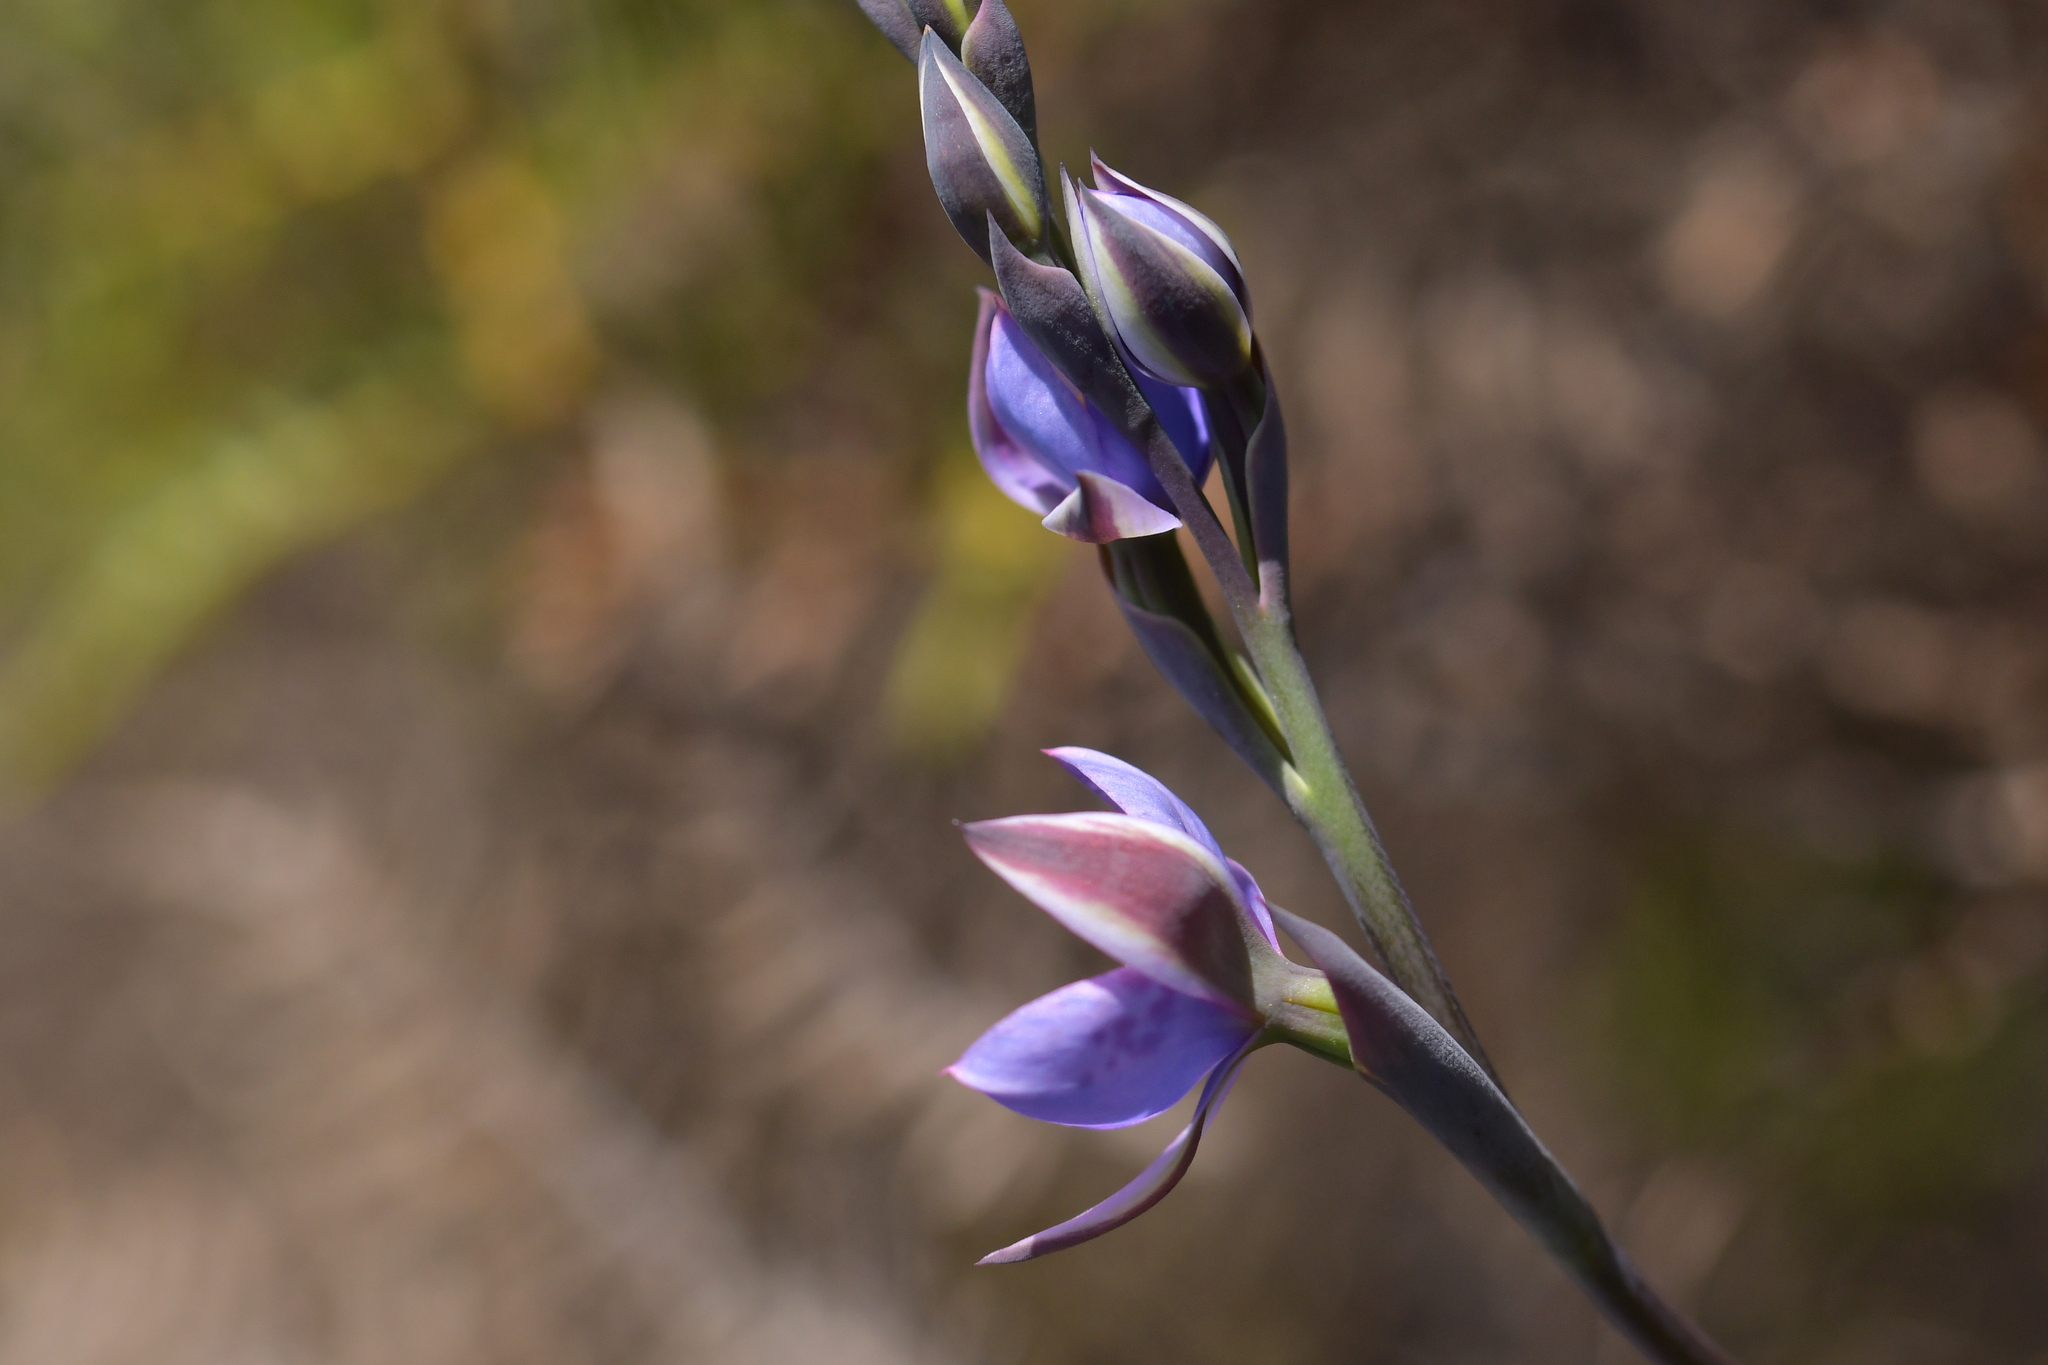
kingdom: Plantae
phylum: Tracheophyta
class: Liliopsida
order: Asparagales
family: Orchidaceae
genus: Thelymitra
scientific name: Thelymitra nervosa
